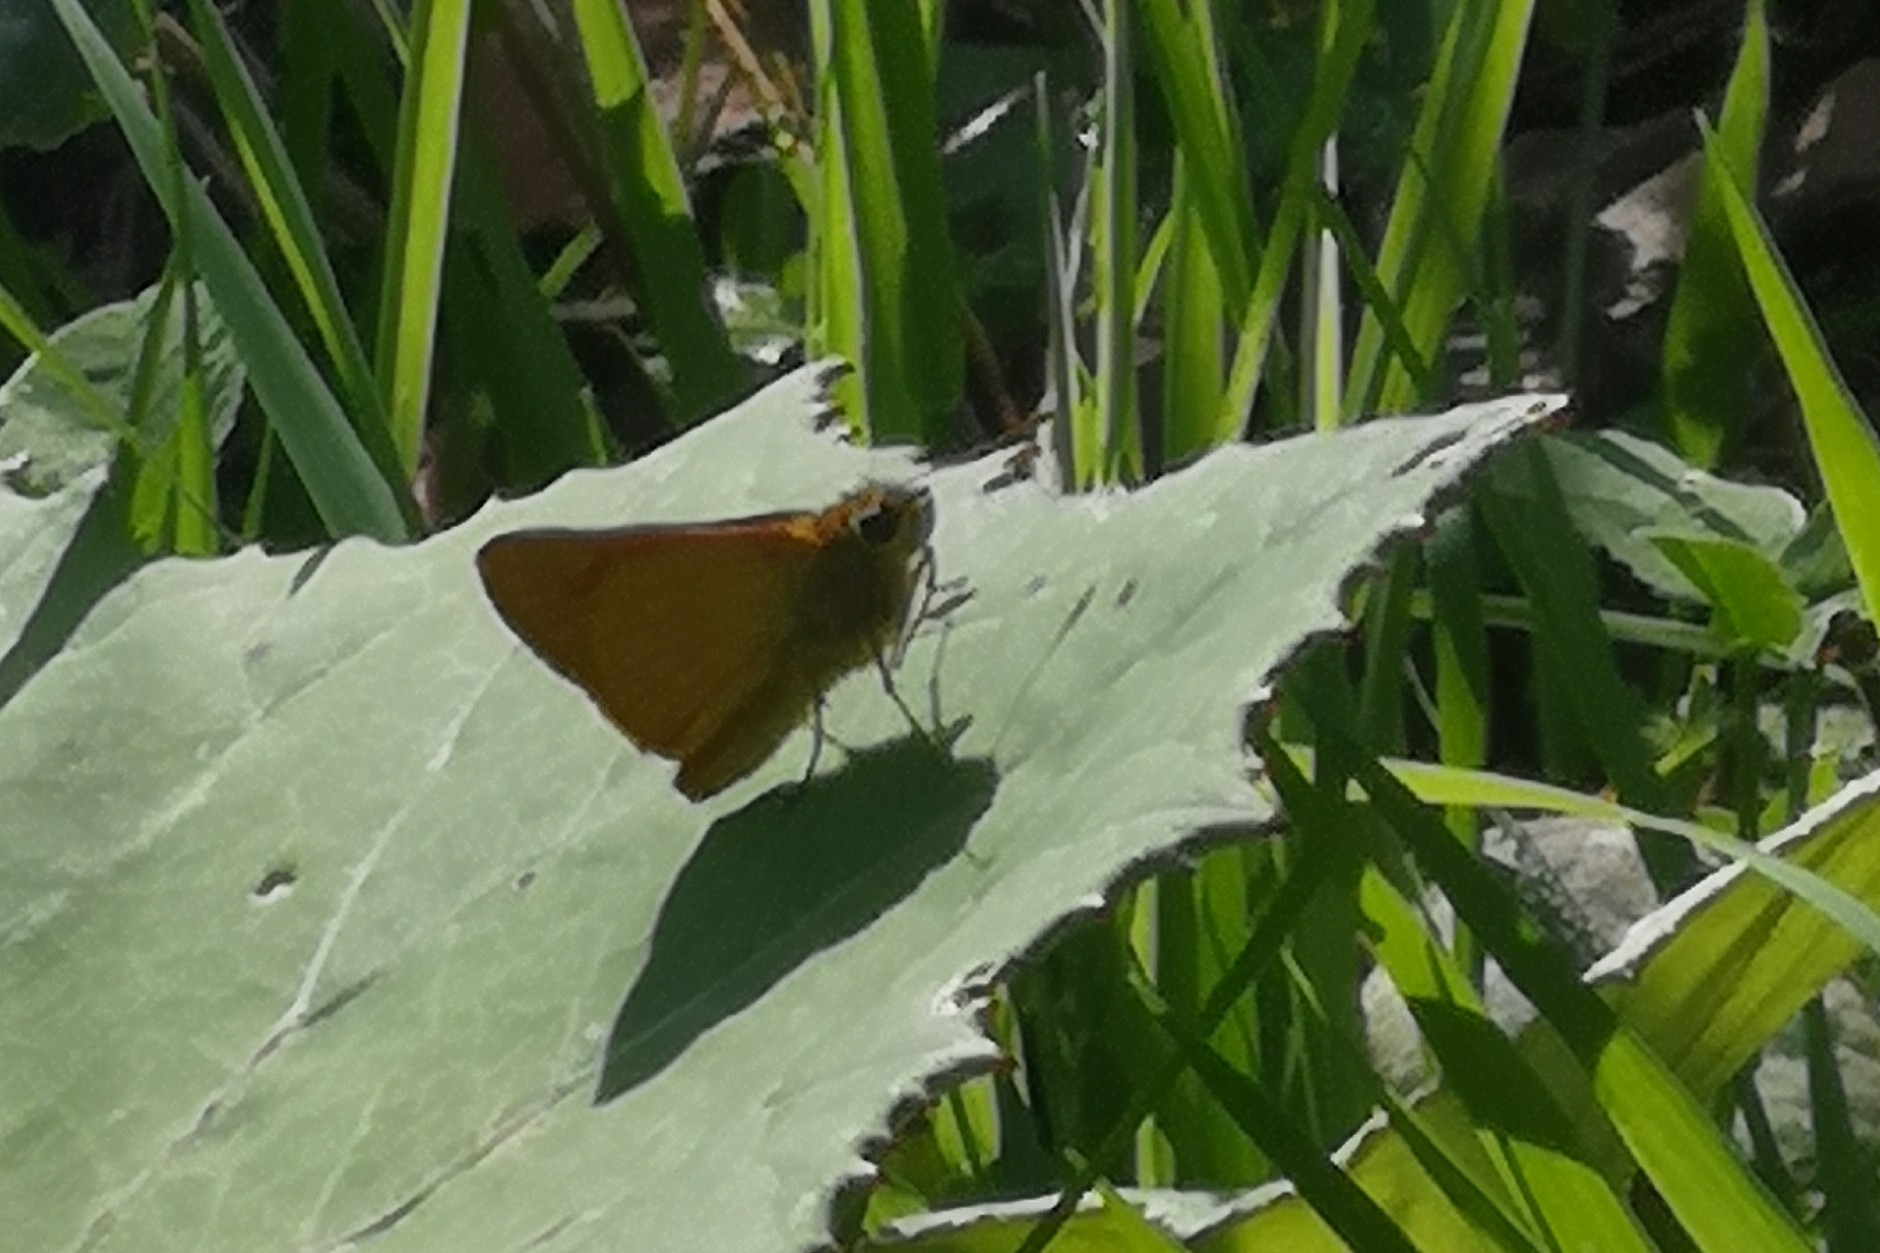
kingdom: Animalia
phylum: Arthropoda
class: Insecta
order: Lepidoptera
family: Hesperiidae
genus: Ochlodes
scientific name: Ochlodes venata
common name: Large skipper
